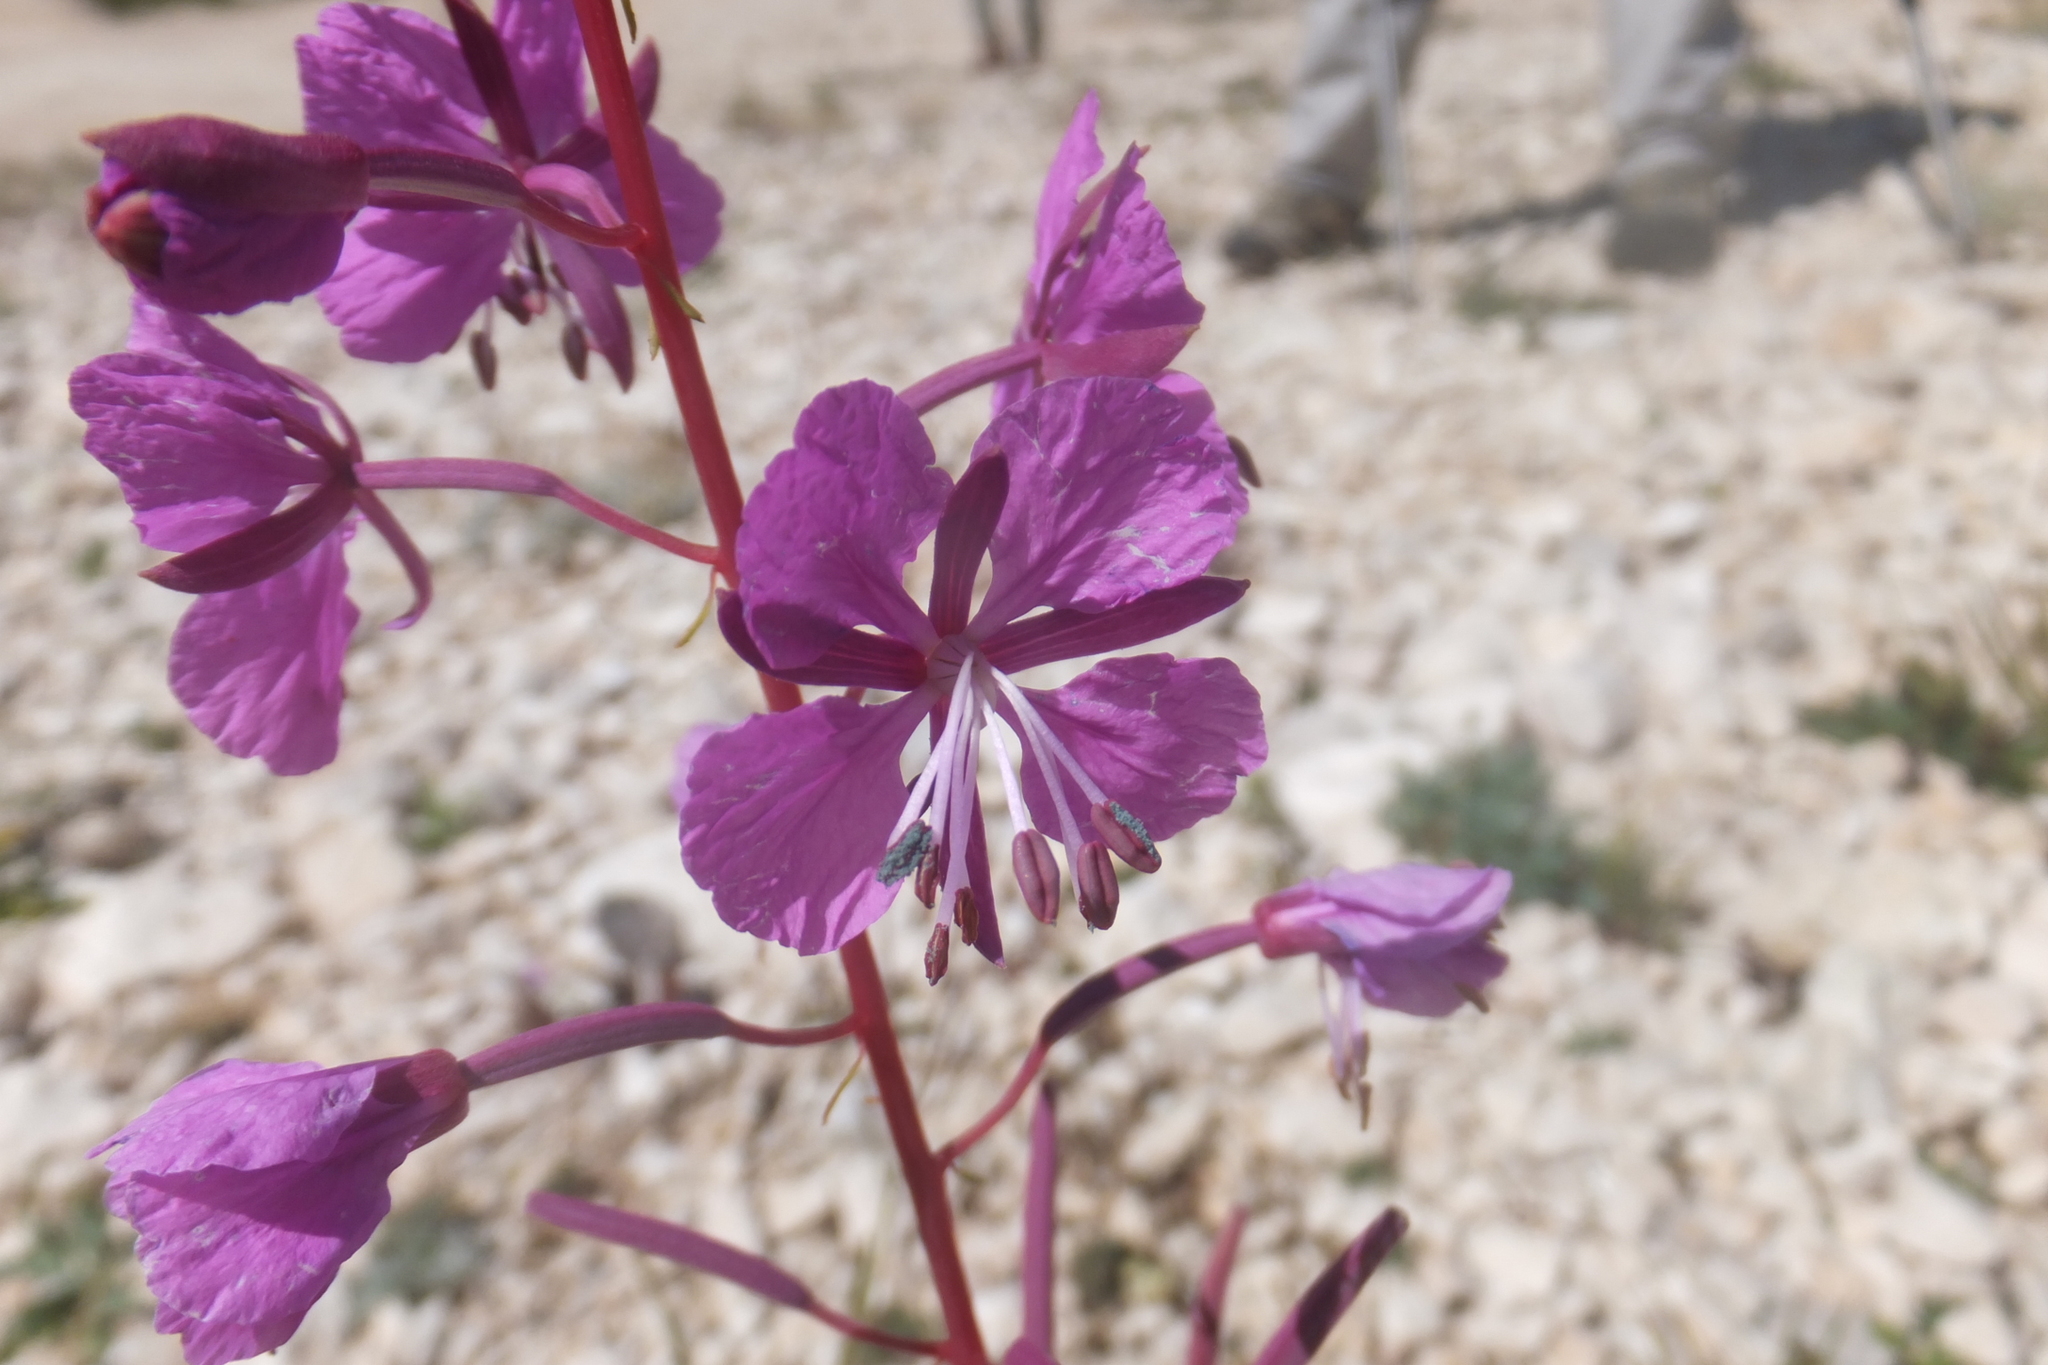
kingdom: Plantae
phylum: Tracheophyta
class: Magnoliopsida
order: Myrtales
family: Onagraceae
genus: Chamaenerion
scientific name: Chamaenerion angustifolium
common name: Fireweed
